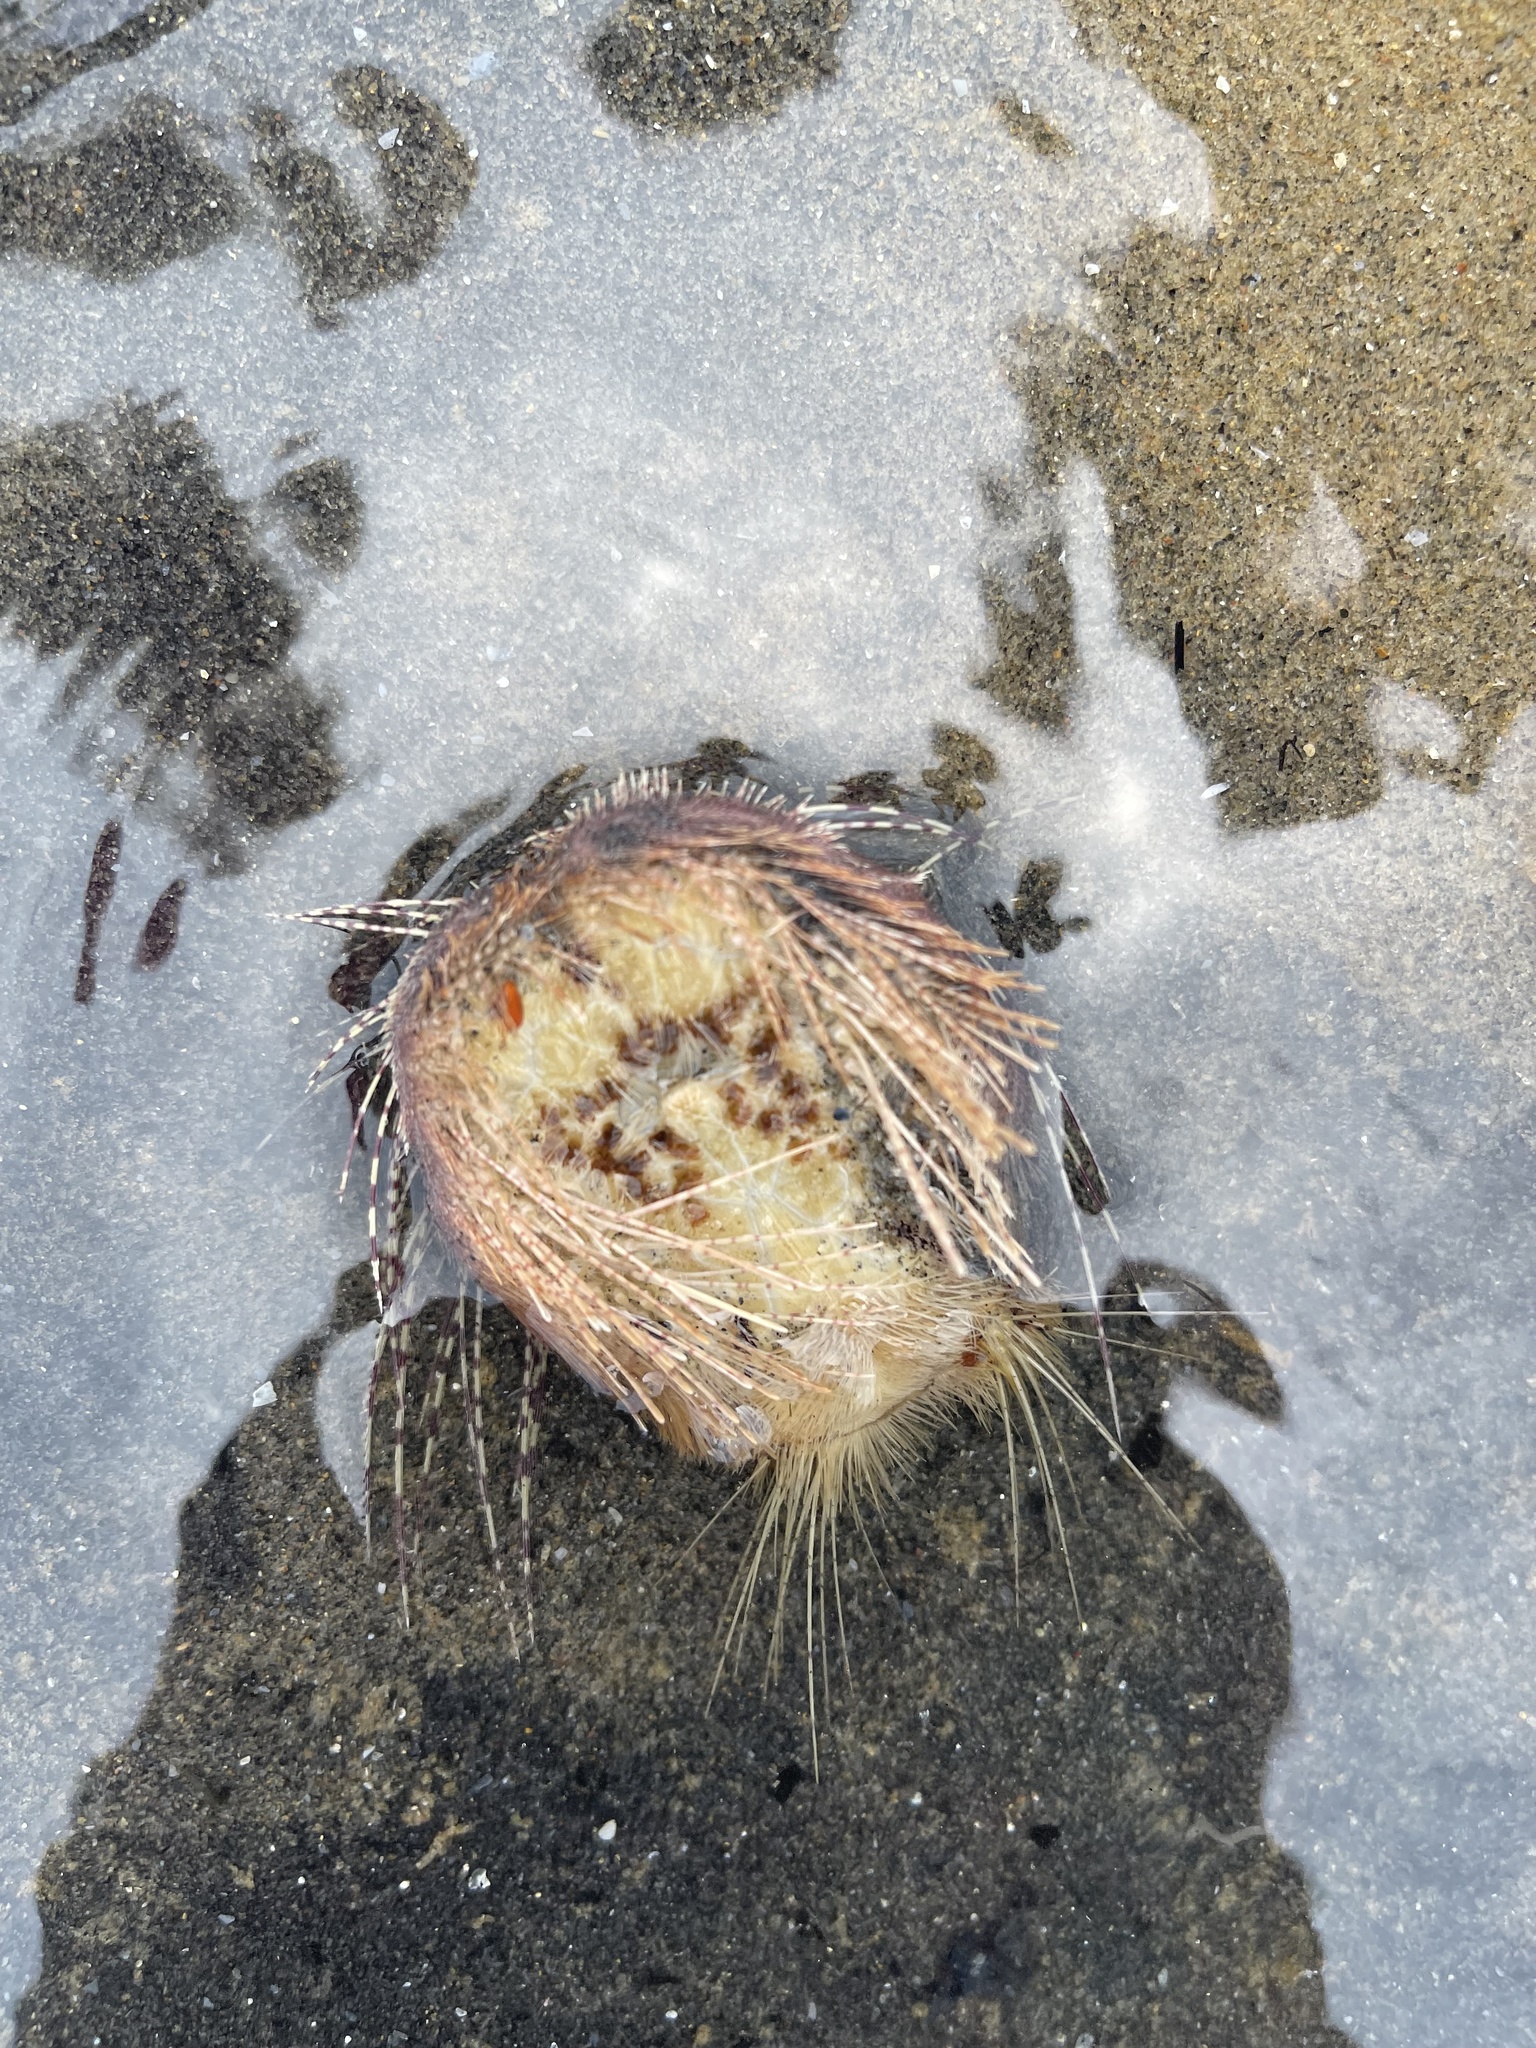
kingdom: Animalia
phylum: Echinodermata
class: Echinoidea
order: Spatangoida
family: Loveniidae
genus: Lovenia
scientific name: Lovenia elongata
